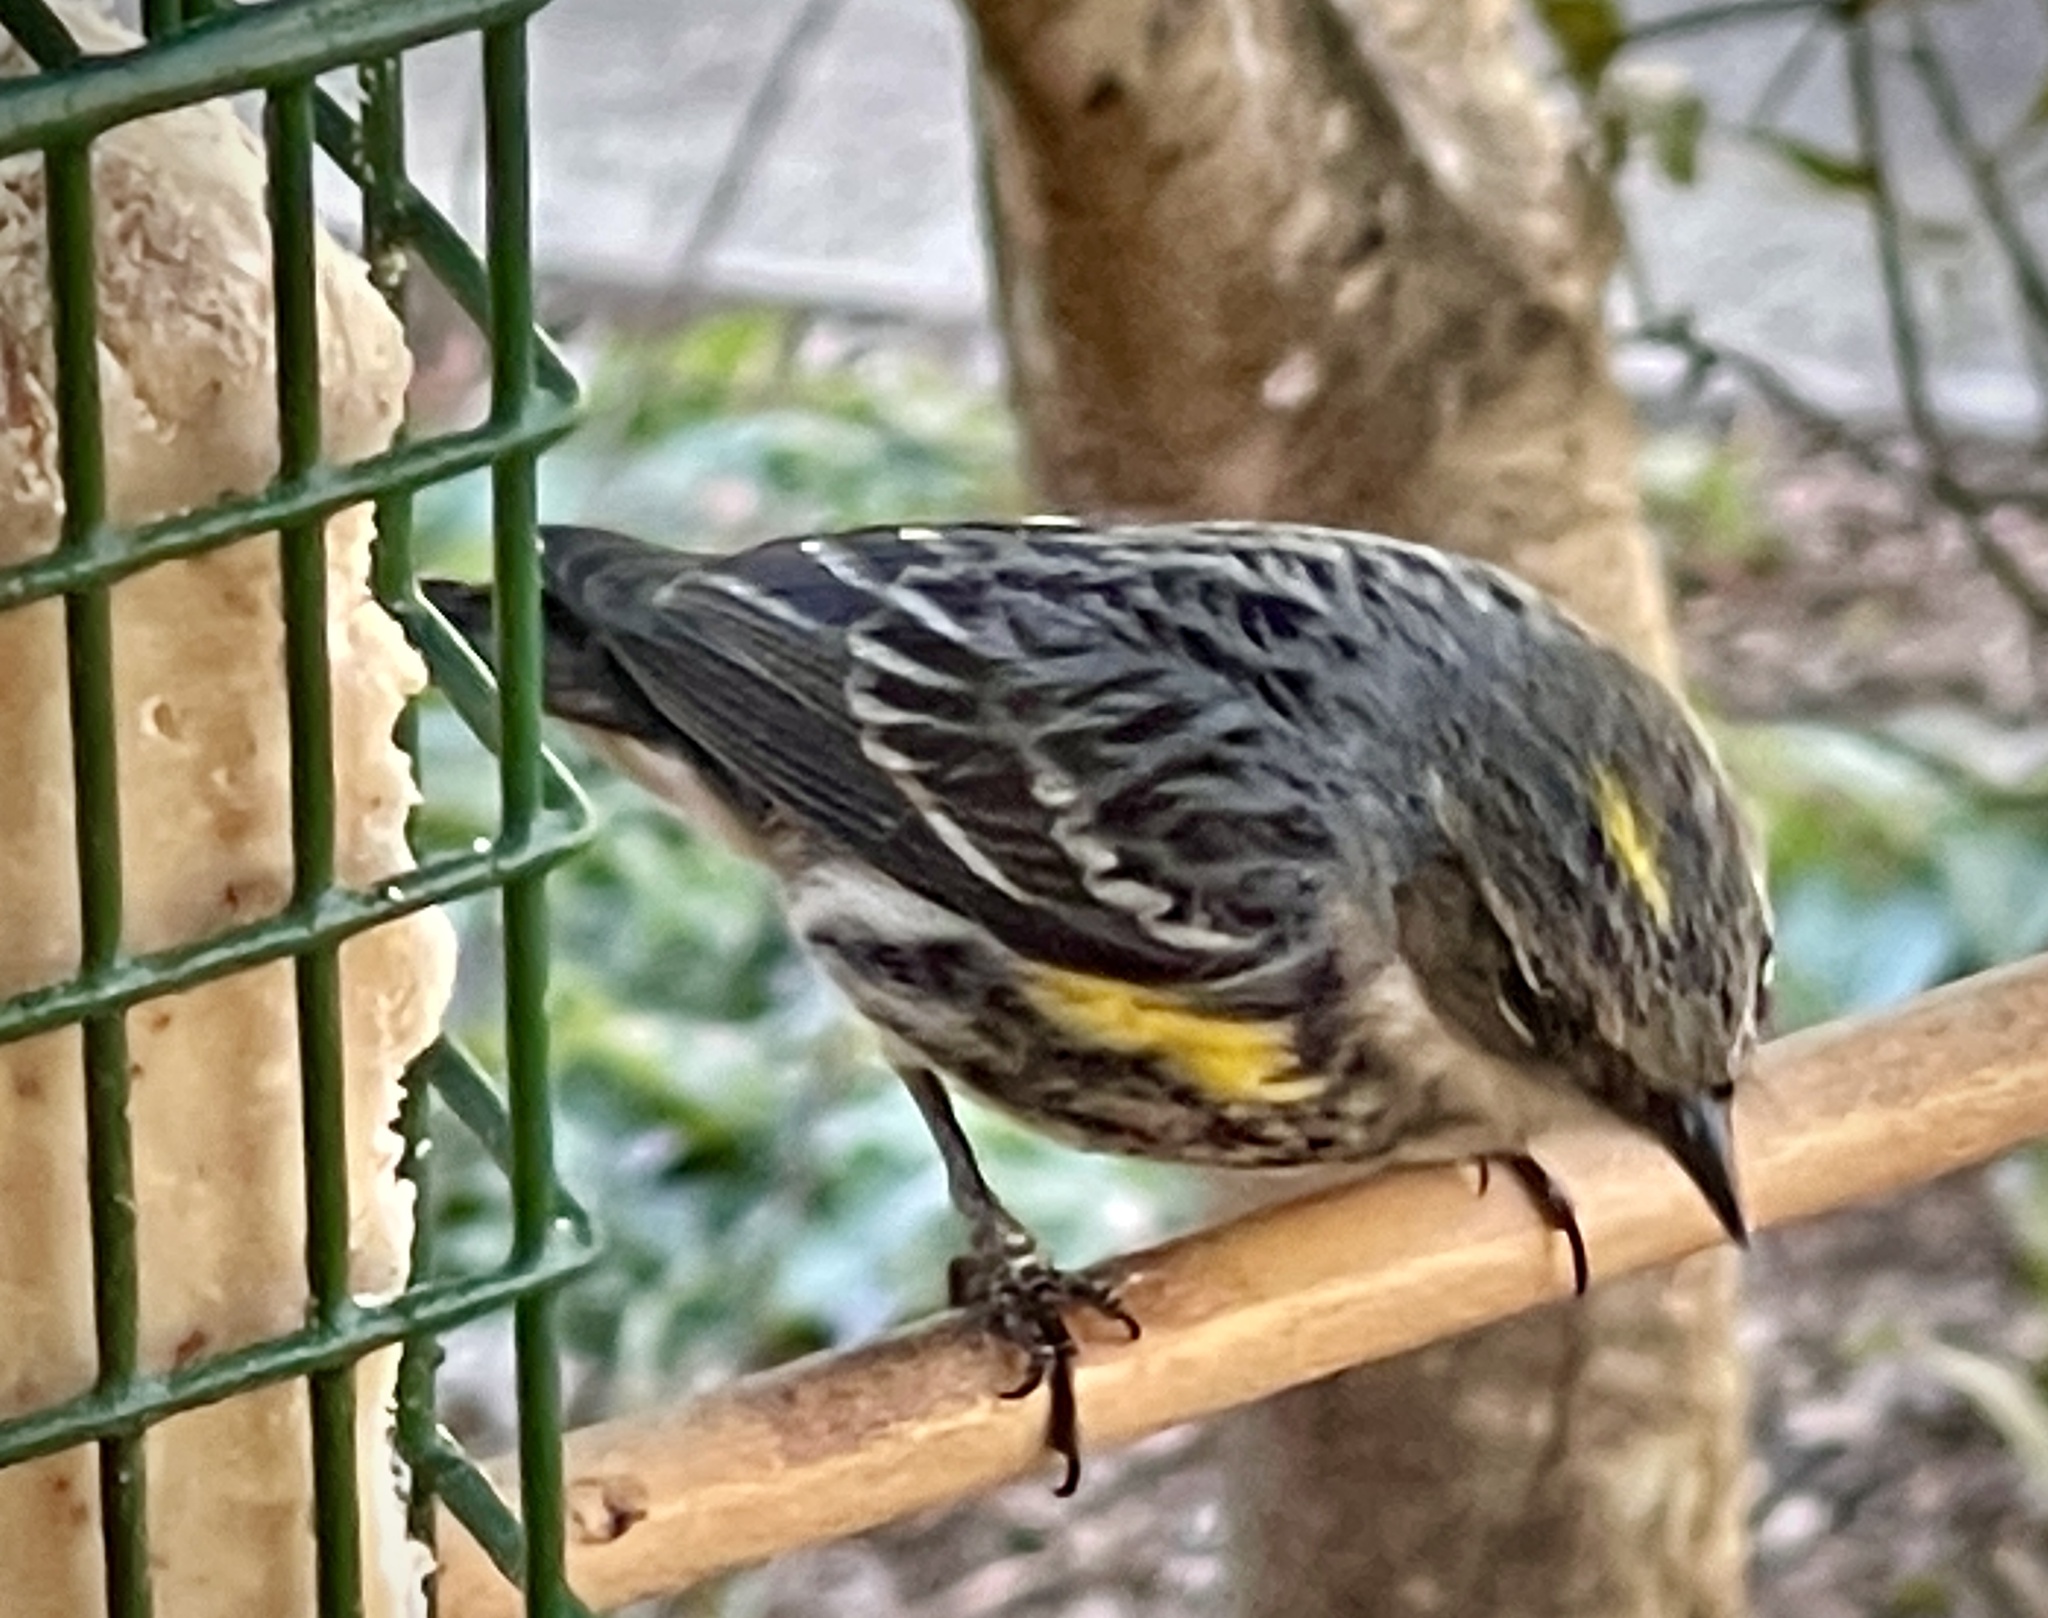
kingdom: Animalia
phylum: Chordata
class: Aves
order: Passeriformes
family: Parulidae
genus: Setophaga
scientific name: Setophaga coronata
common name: Myrtle warbler
